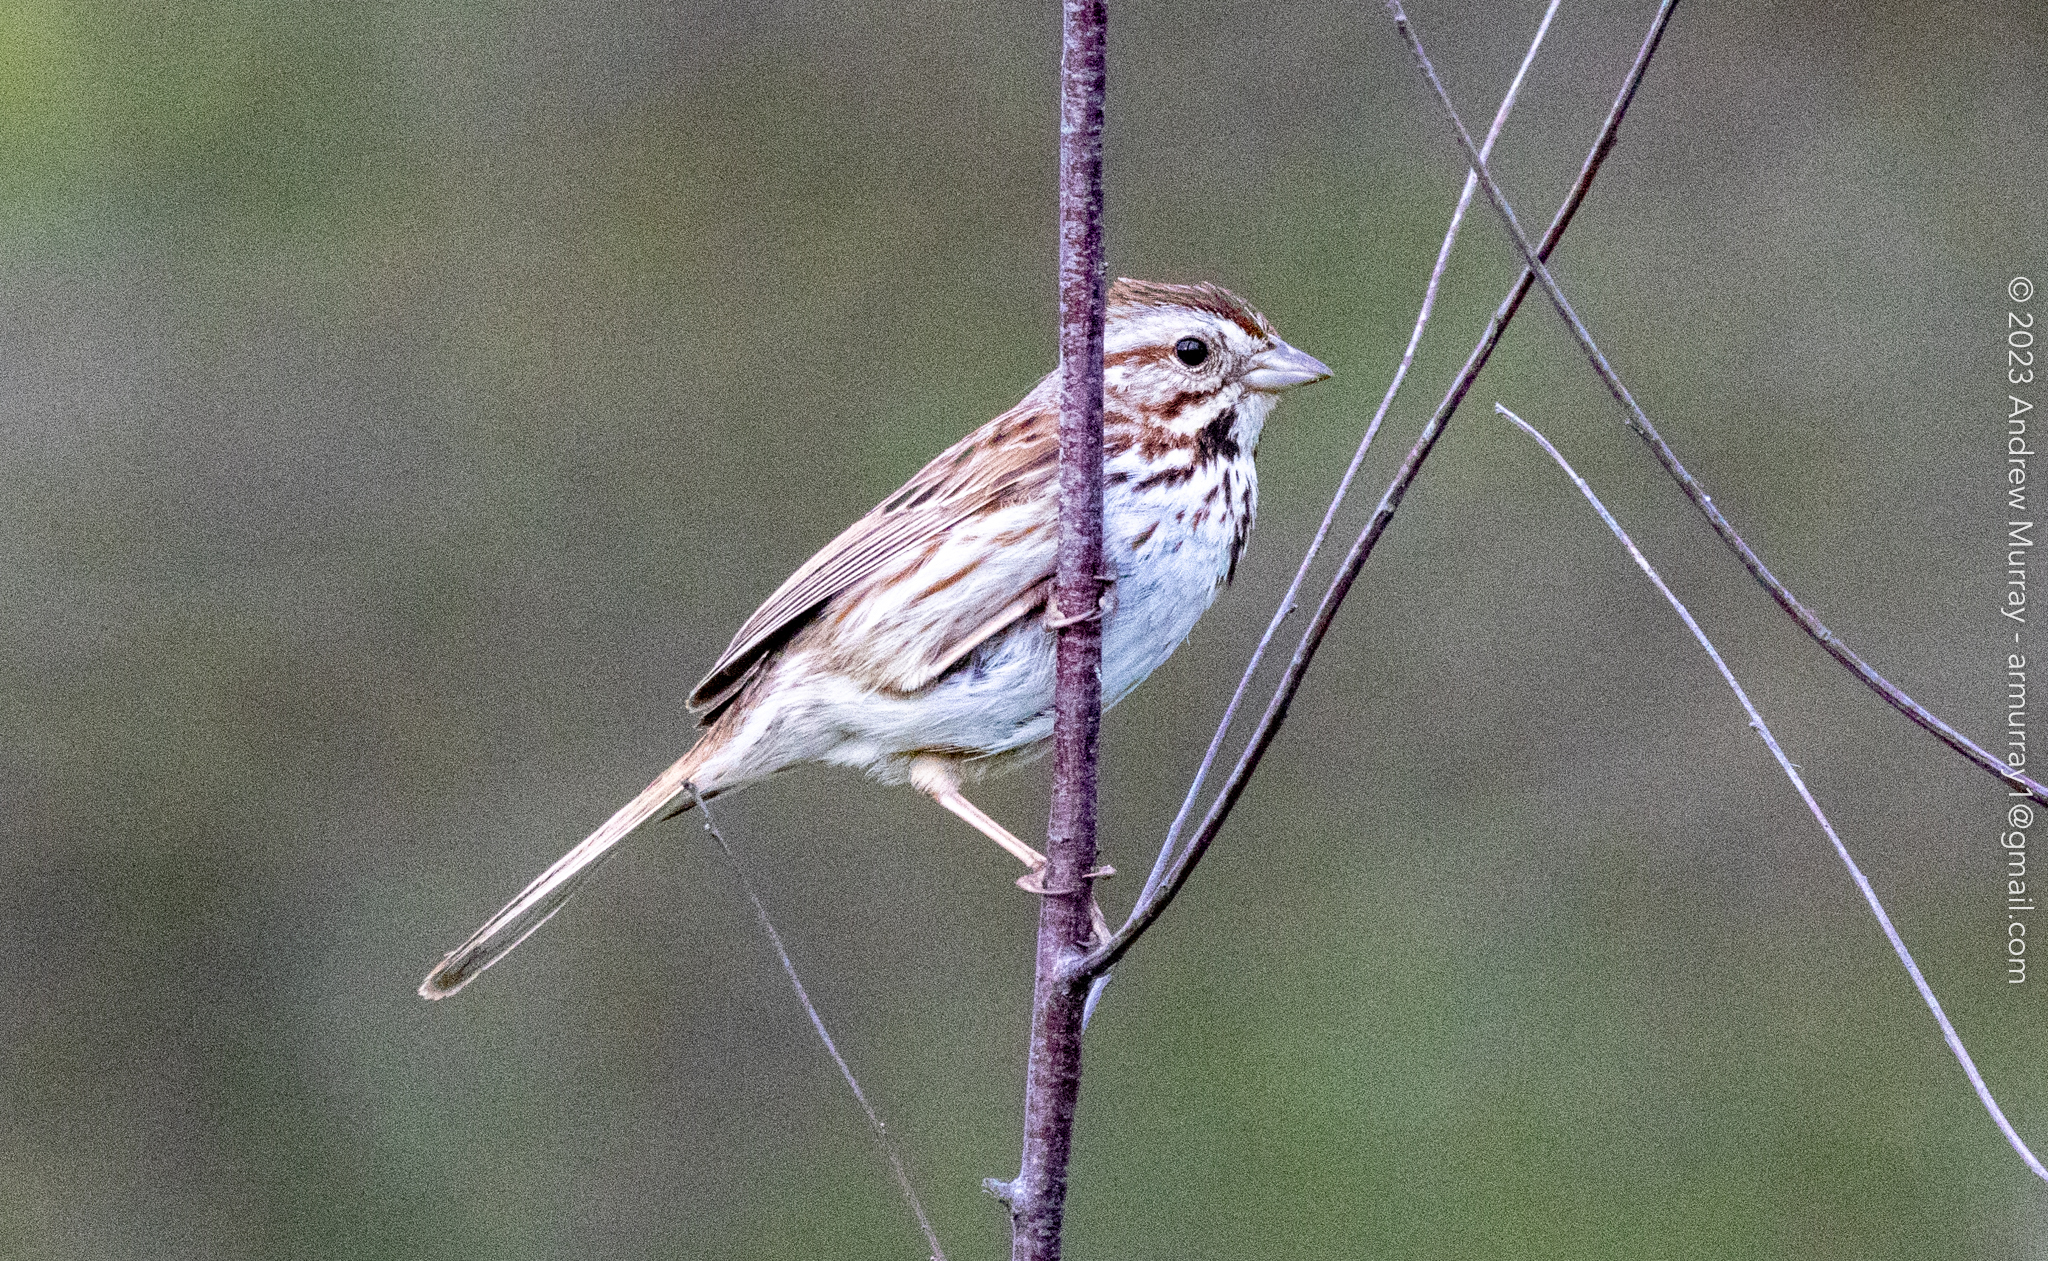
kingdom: Animalia
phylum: Chordata
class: Aves
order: Passeriformes
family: Passerellidae
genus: Melospiza
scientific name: Melospiza melodia
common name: Song sparrow
